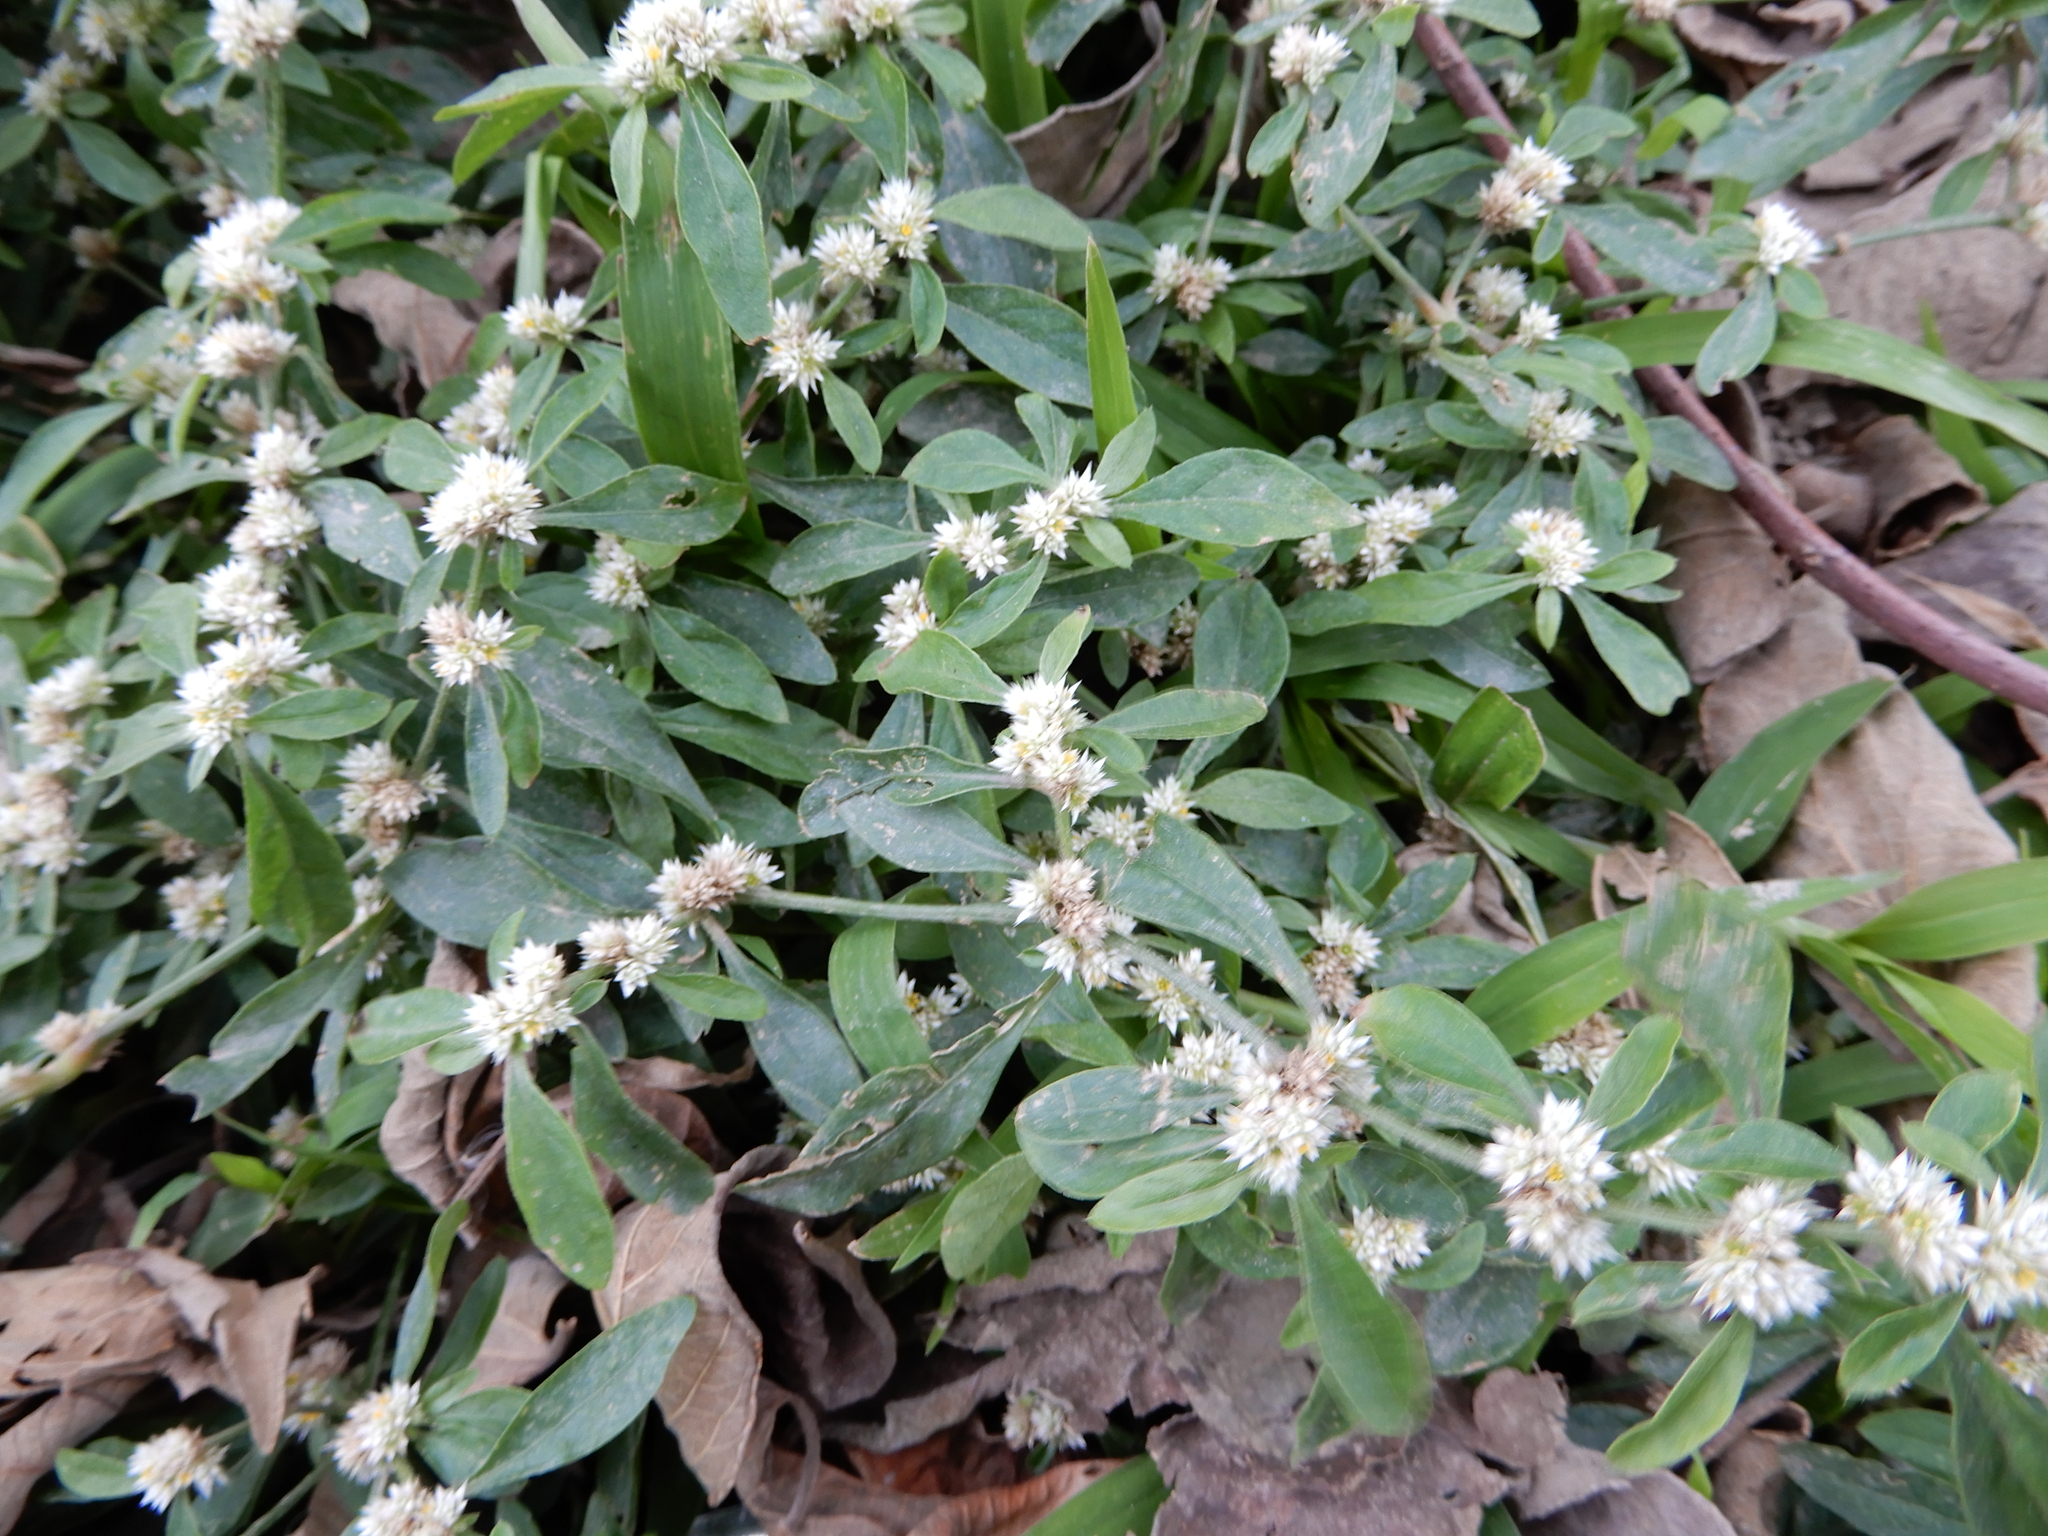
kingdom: Plantae
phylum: Tracheophyta
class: Magnoliopsida
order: Caryophyllales
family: Amaranthaceae
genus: Alternanthera
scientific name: Alternanthera ficoidea
